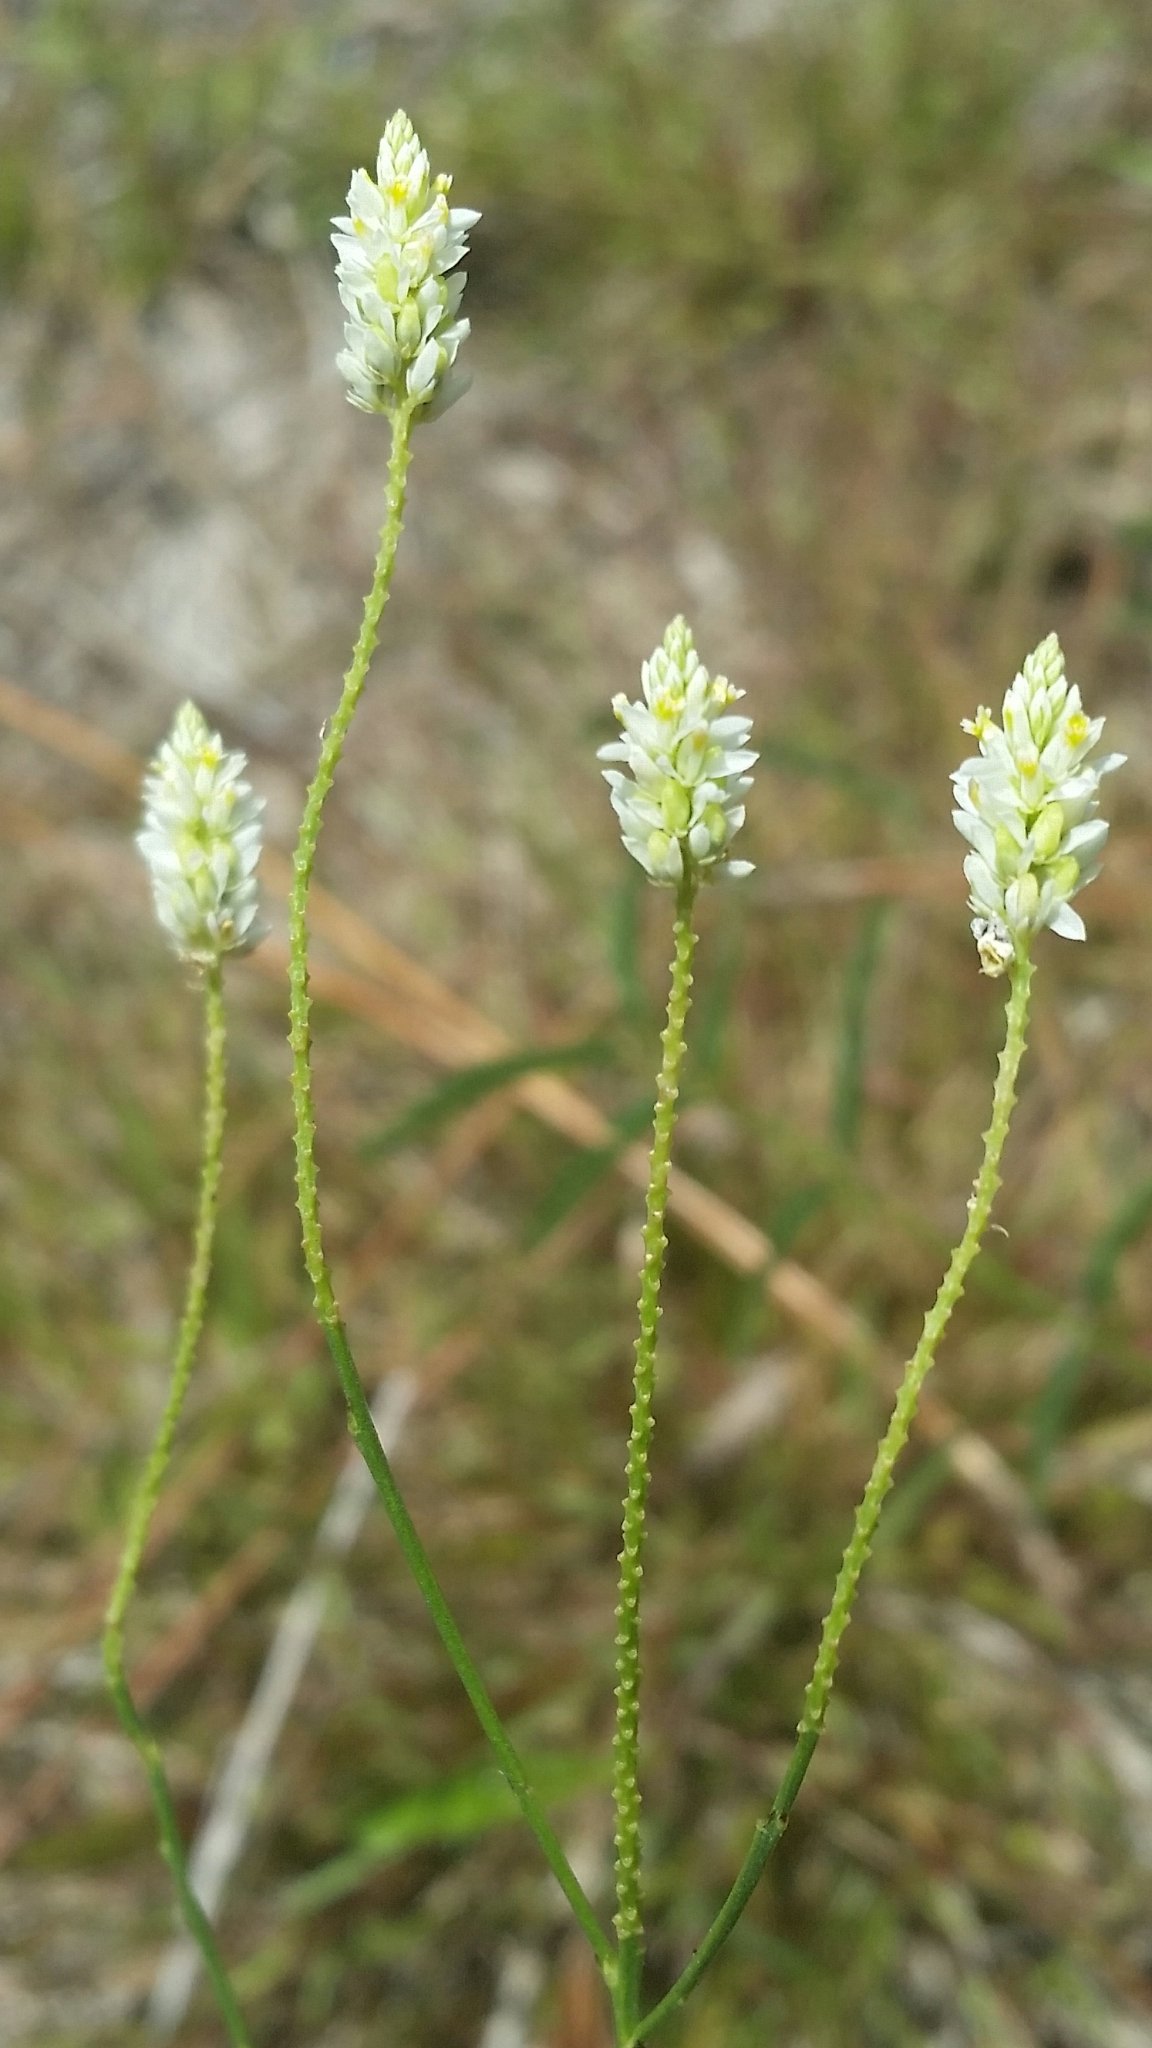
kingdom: Plantae
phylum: Tracheophyta
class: Magnoliopsida
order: Fabales
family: Polygalaceae
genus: Polygala
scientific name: Polygala setacea
